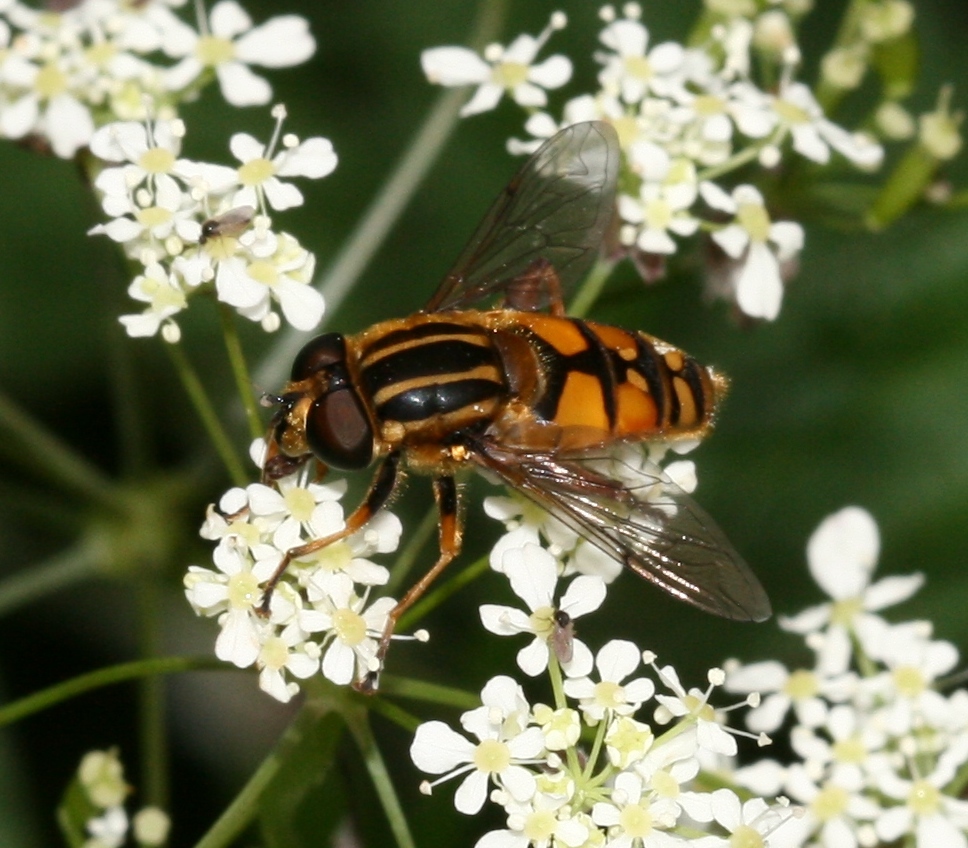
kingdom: Animalia
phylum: Arthropoda
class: Insecta
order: Diptera
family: Syrphidae
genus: Helophilus
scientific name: Helophilus pendulus
